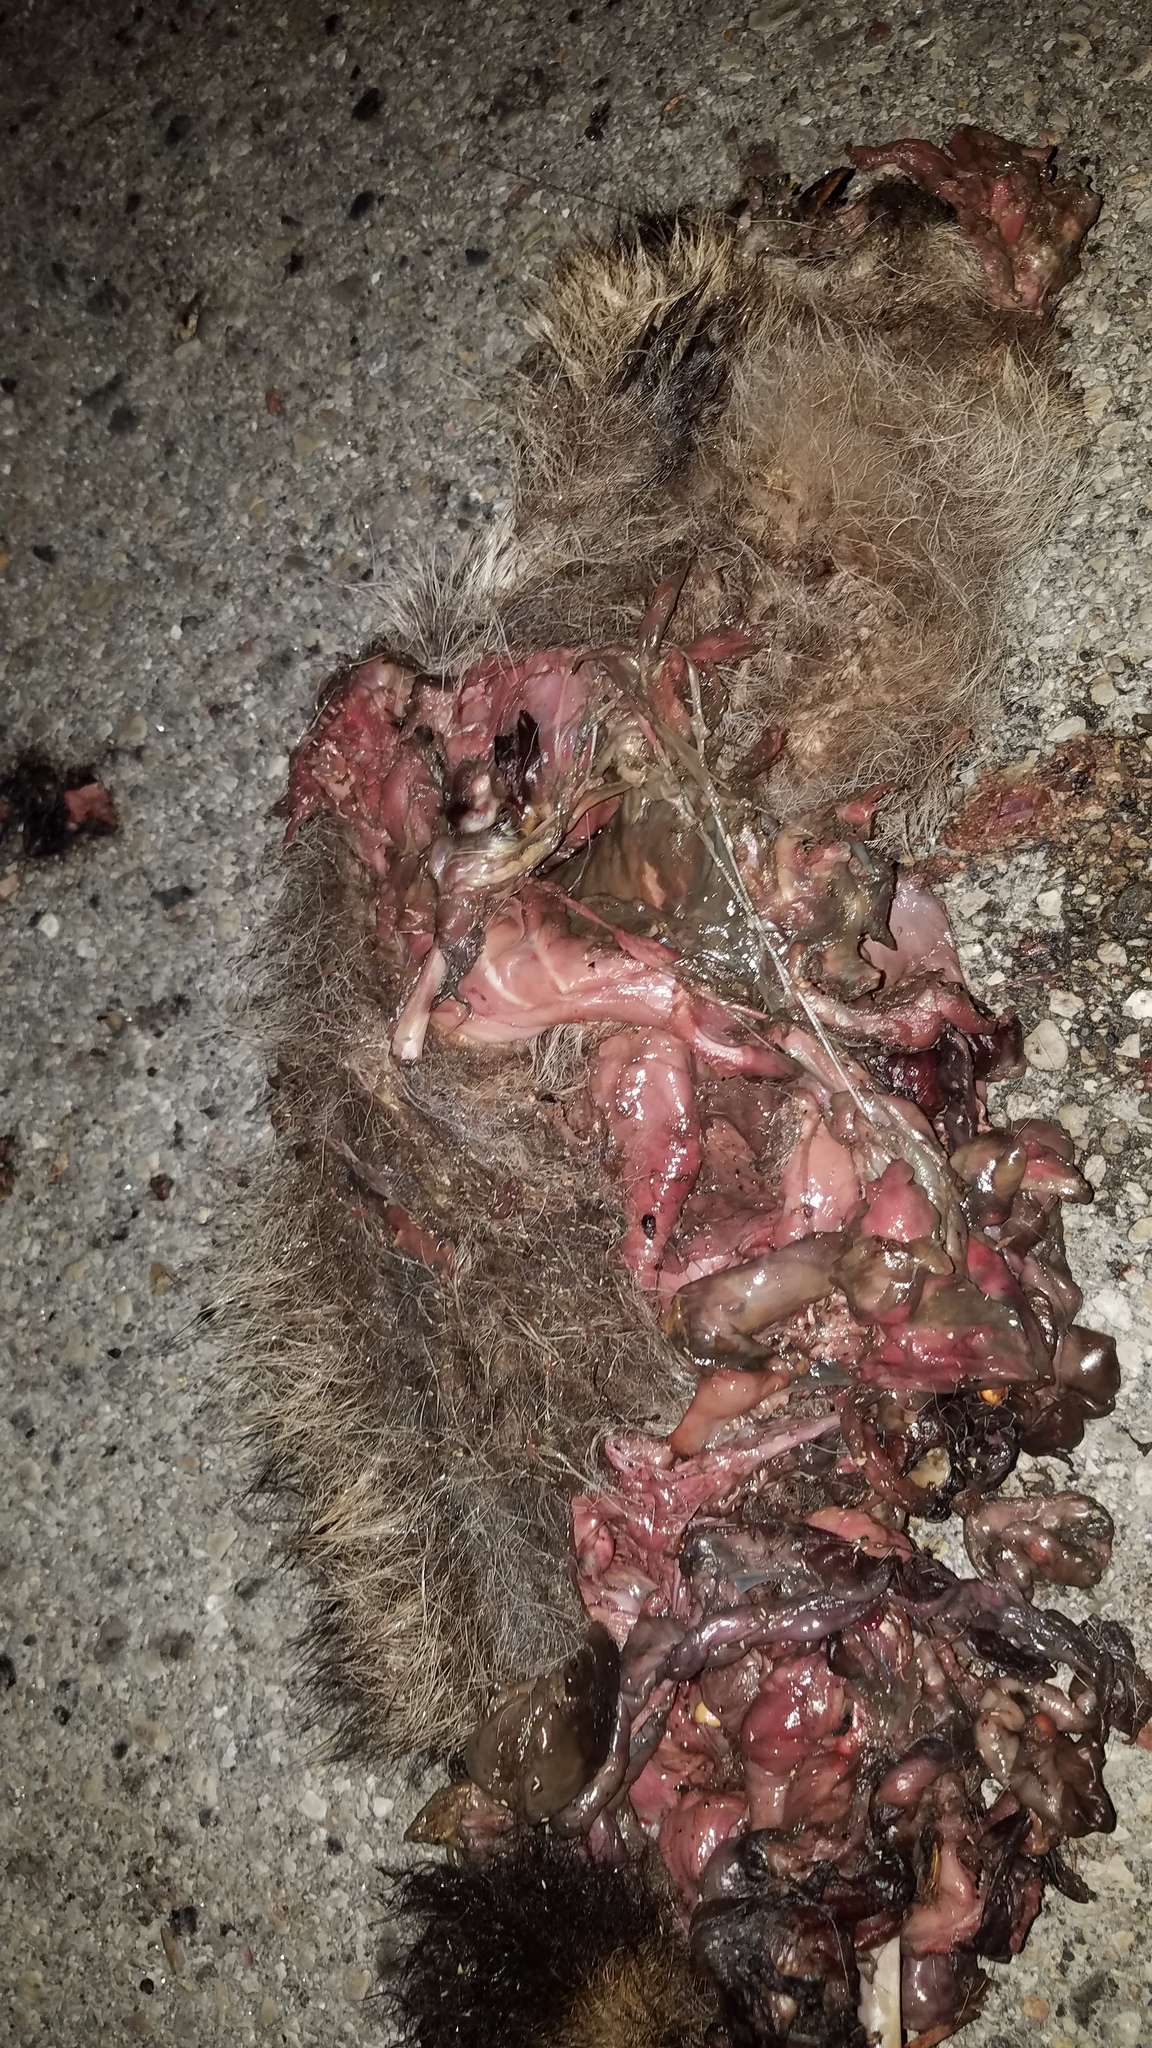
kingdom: Animalia
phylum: Chordata
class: Mammalia
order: Carnivora
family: Procyonidae
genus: Procyon
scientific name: Procyon lotor
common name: Raccoon
